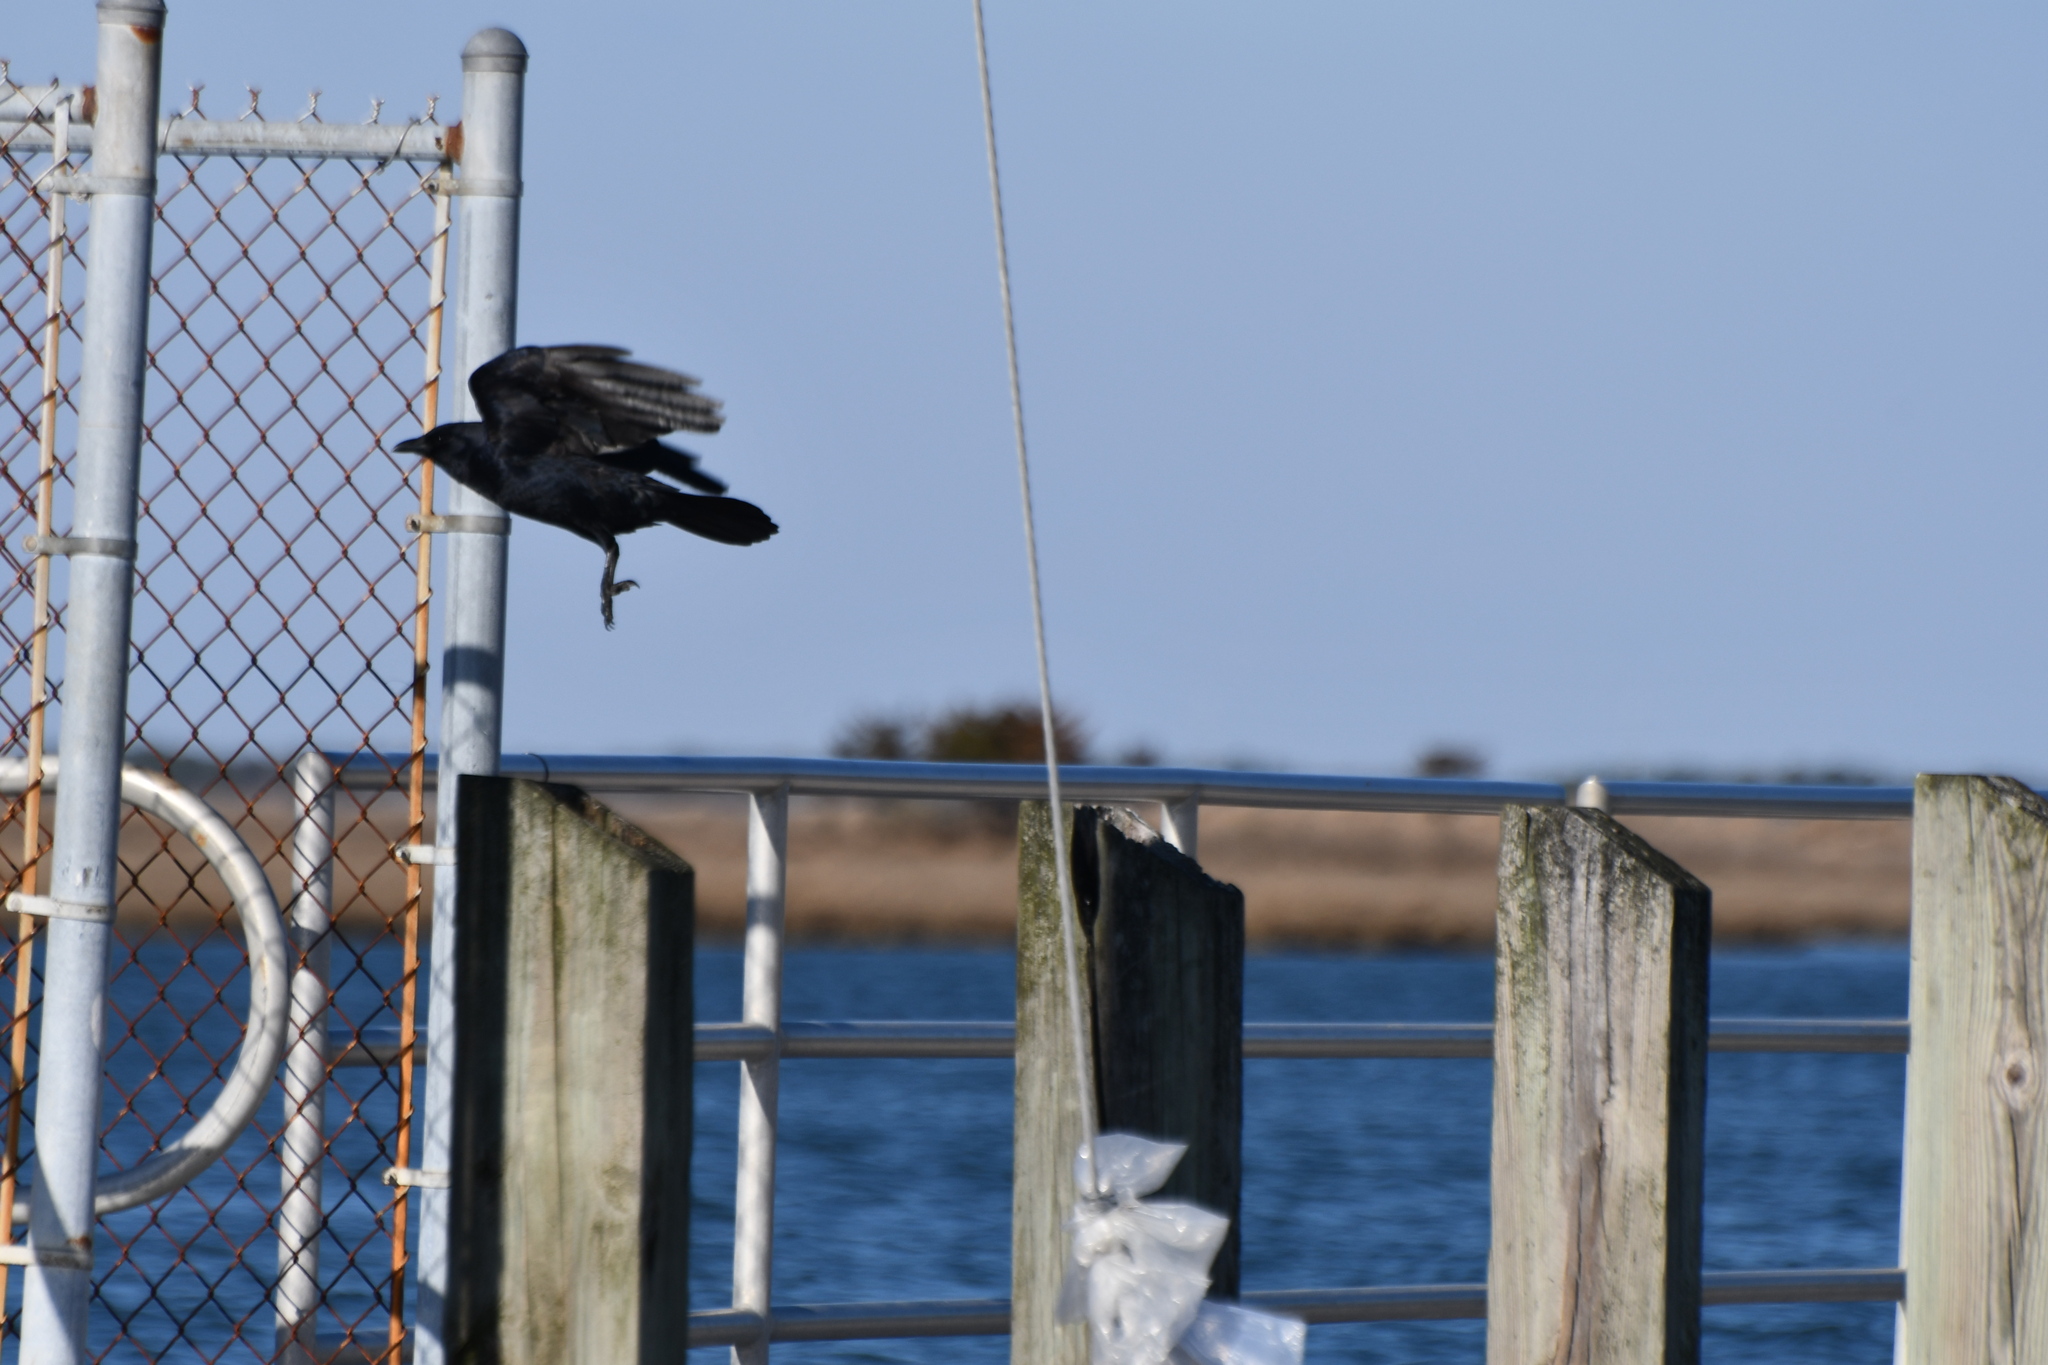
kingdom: Animalia
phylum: Chordata
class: Aves
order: Passeriformes
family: Corvidae
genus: Corvus
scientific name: Corvus ossifragus
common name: Fish crow
